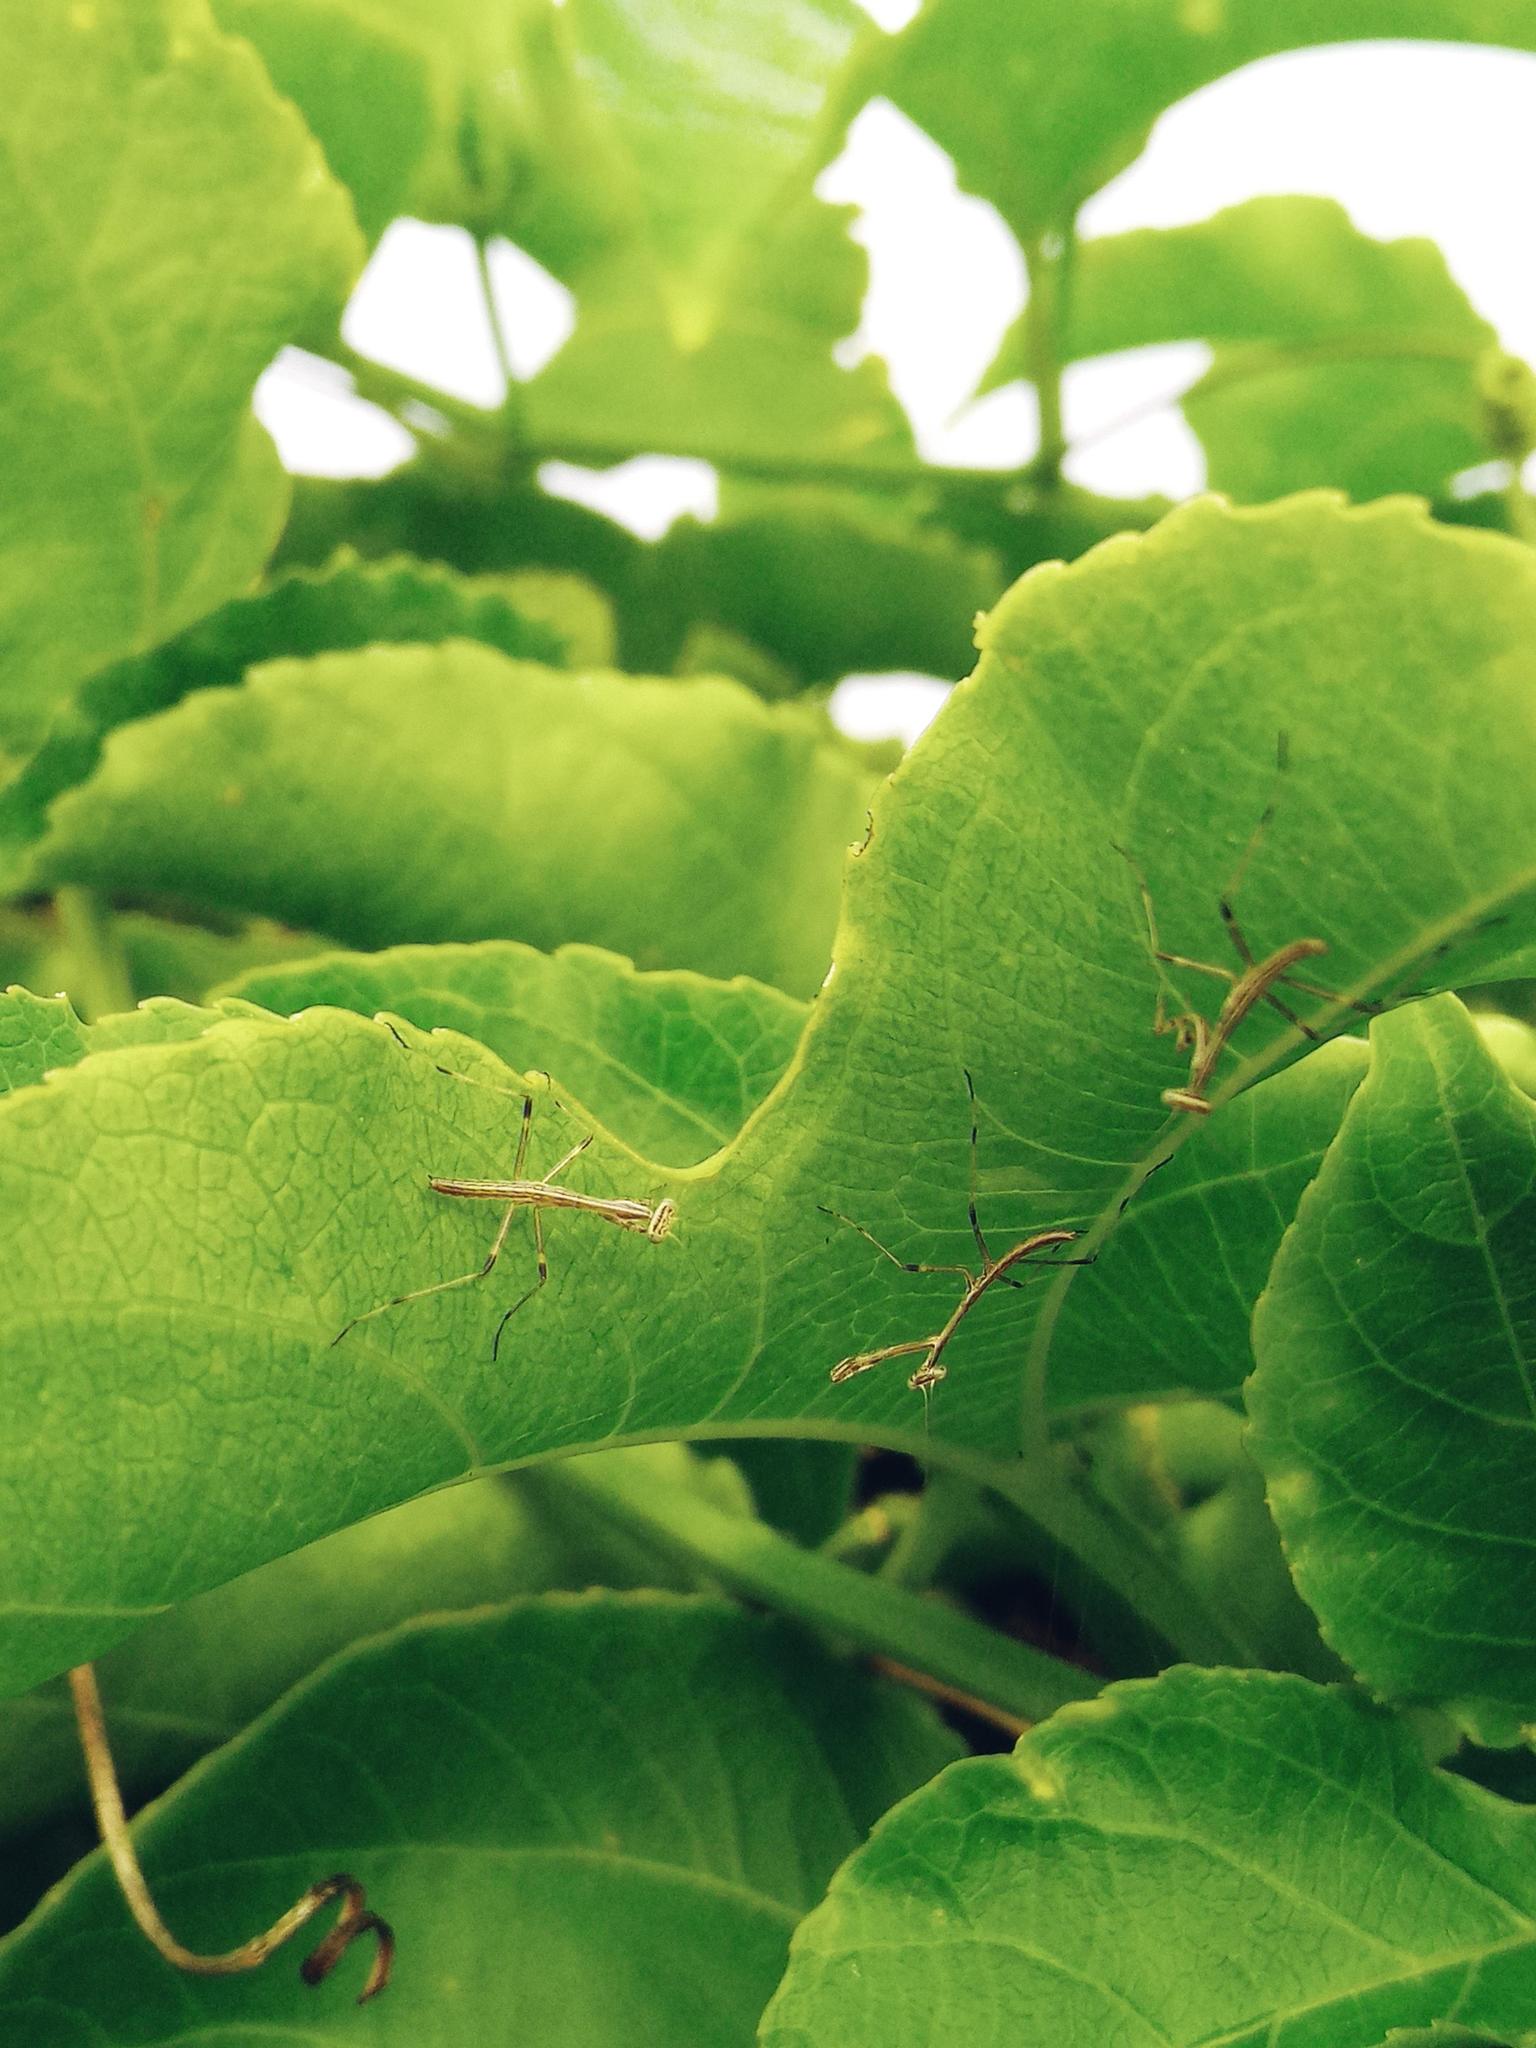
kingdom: Animalia
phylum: Arthropoda
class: Insecta
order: Mantodea
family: Mantidae
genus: Archimantis
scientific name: Archimantis latistyla
